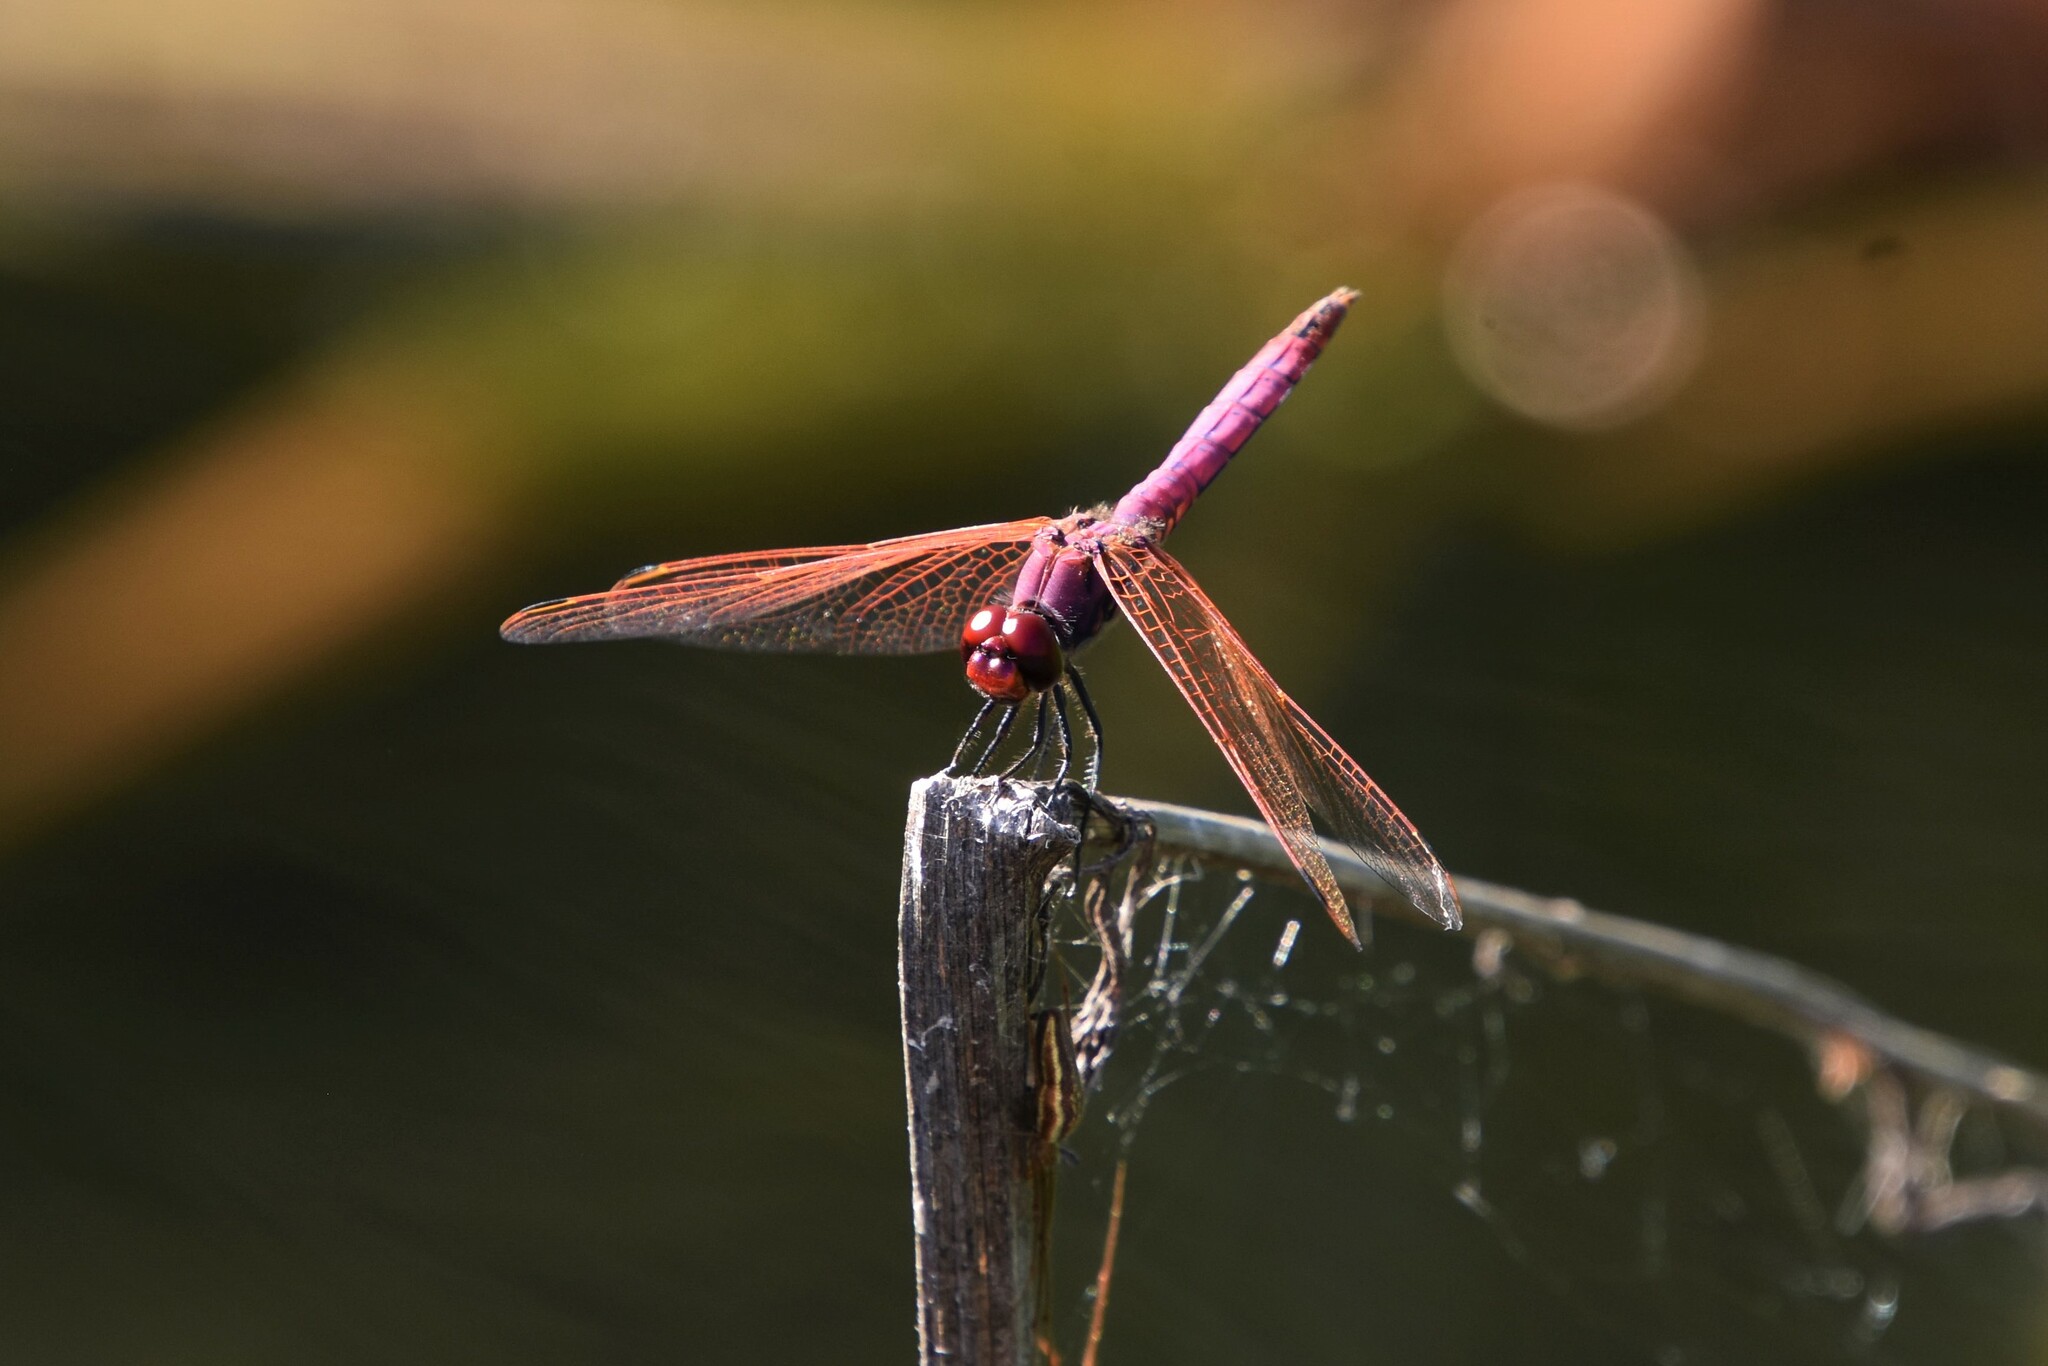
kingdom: Animalia
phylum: Arthropoda
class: Insecta
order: Odonata
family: Libellulidae
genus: Trithemis
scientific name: Trithemis annulata
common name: Violet dropwing
